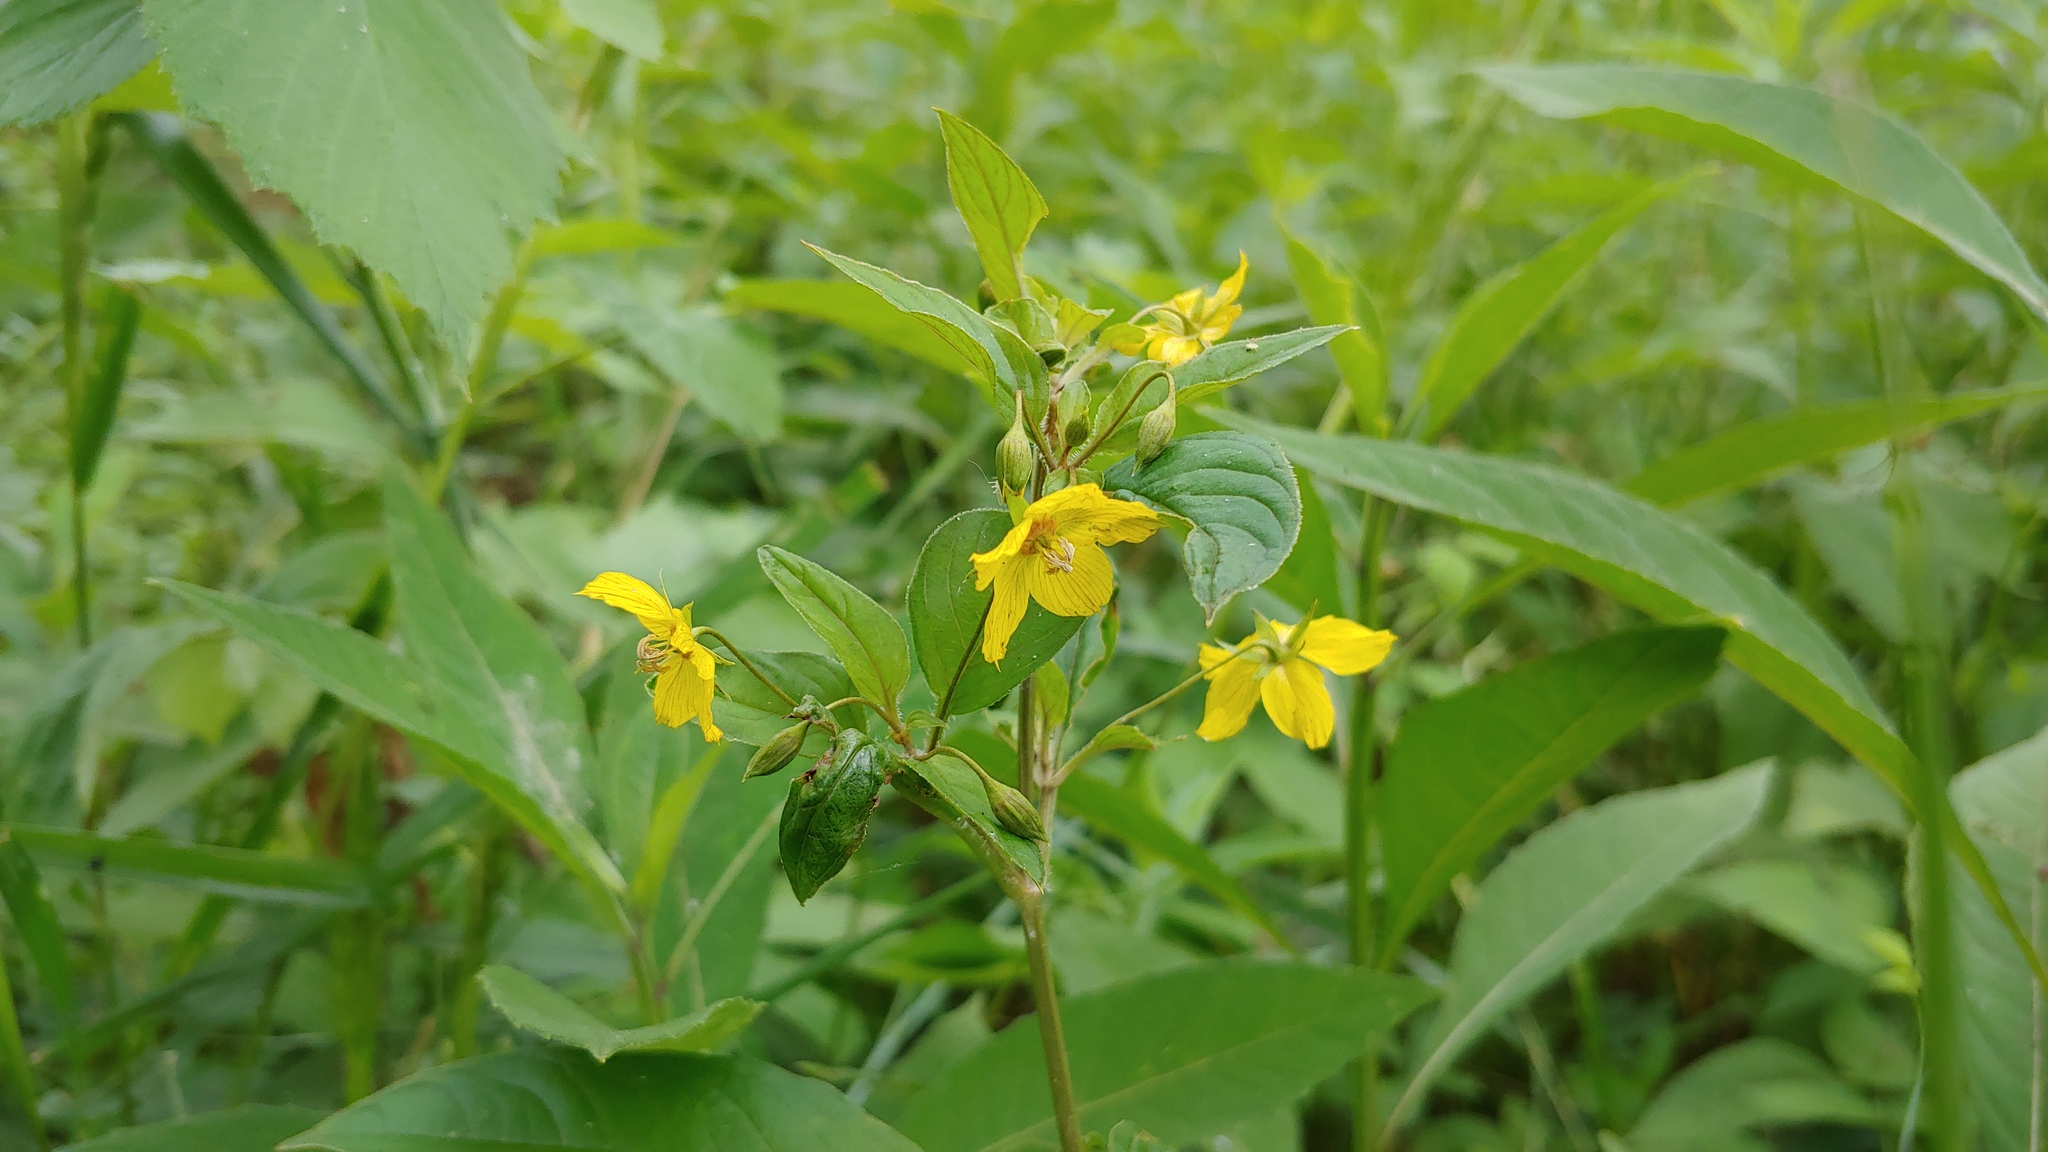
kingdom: Plantae
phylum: Tracheophyta
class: Magnoliopsida
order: Ericales
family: Primulaceae
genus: Lysimachia
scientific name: Lysimachia ciliata
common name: Fringed loosestrife
